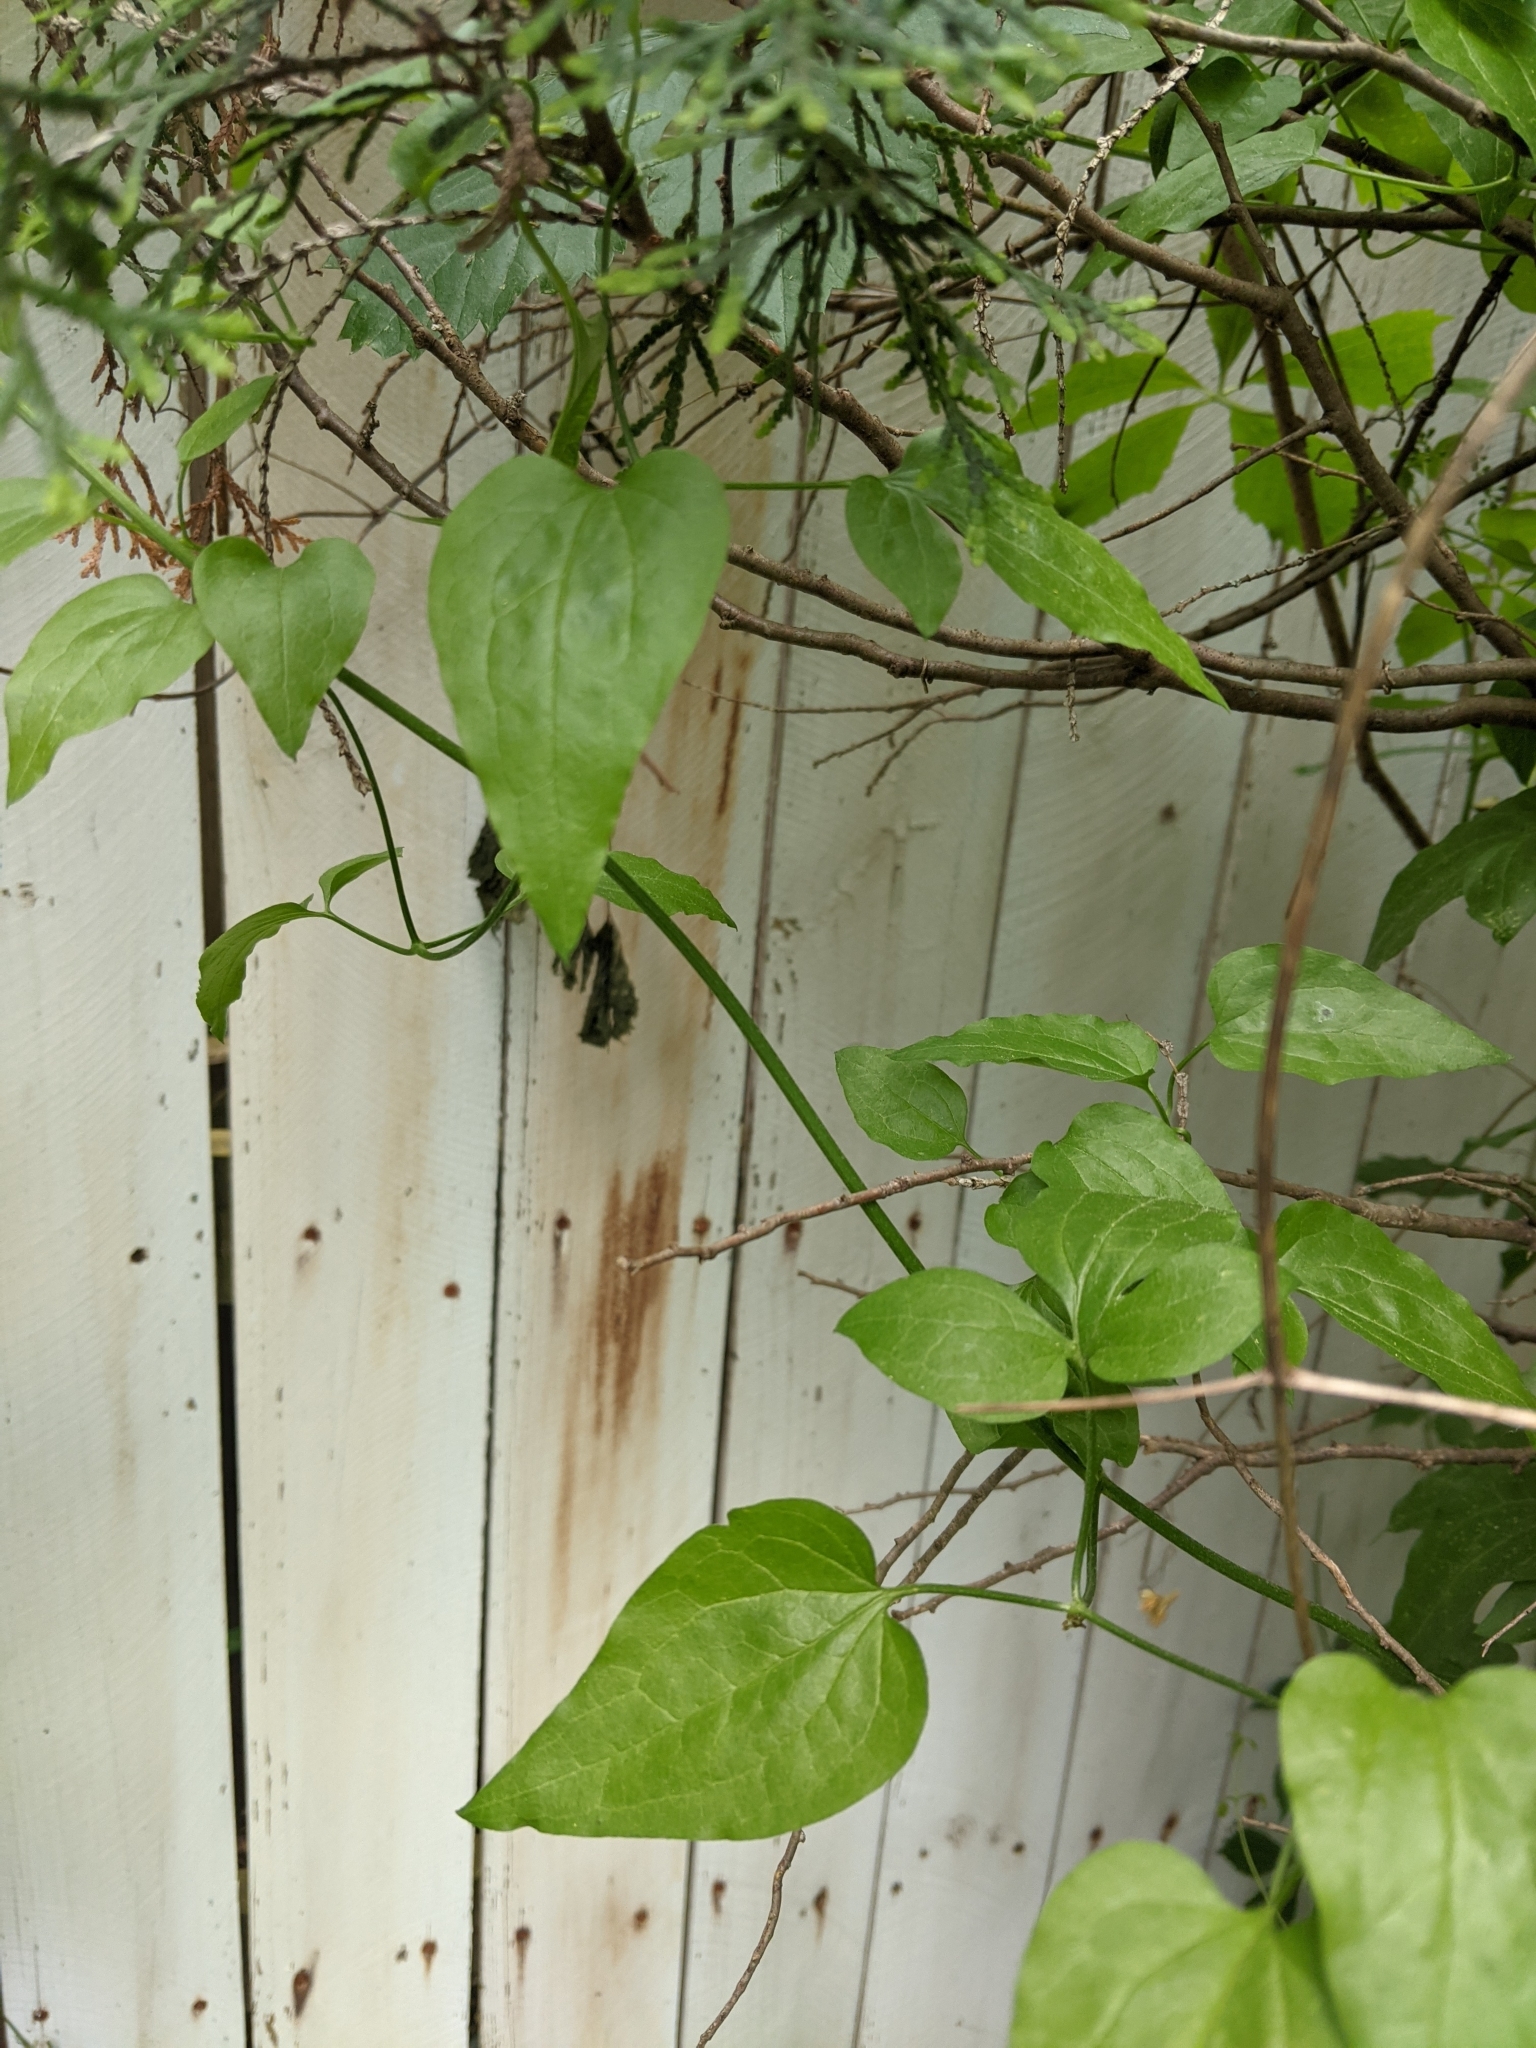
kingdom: Plantae
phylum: Tracheophyta
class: Magnoliopsida
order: Ranunculales
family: Ranunculaceae
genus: Clematis
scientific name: Clematis terniflora
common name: Sweet autumn clematis
